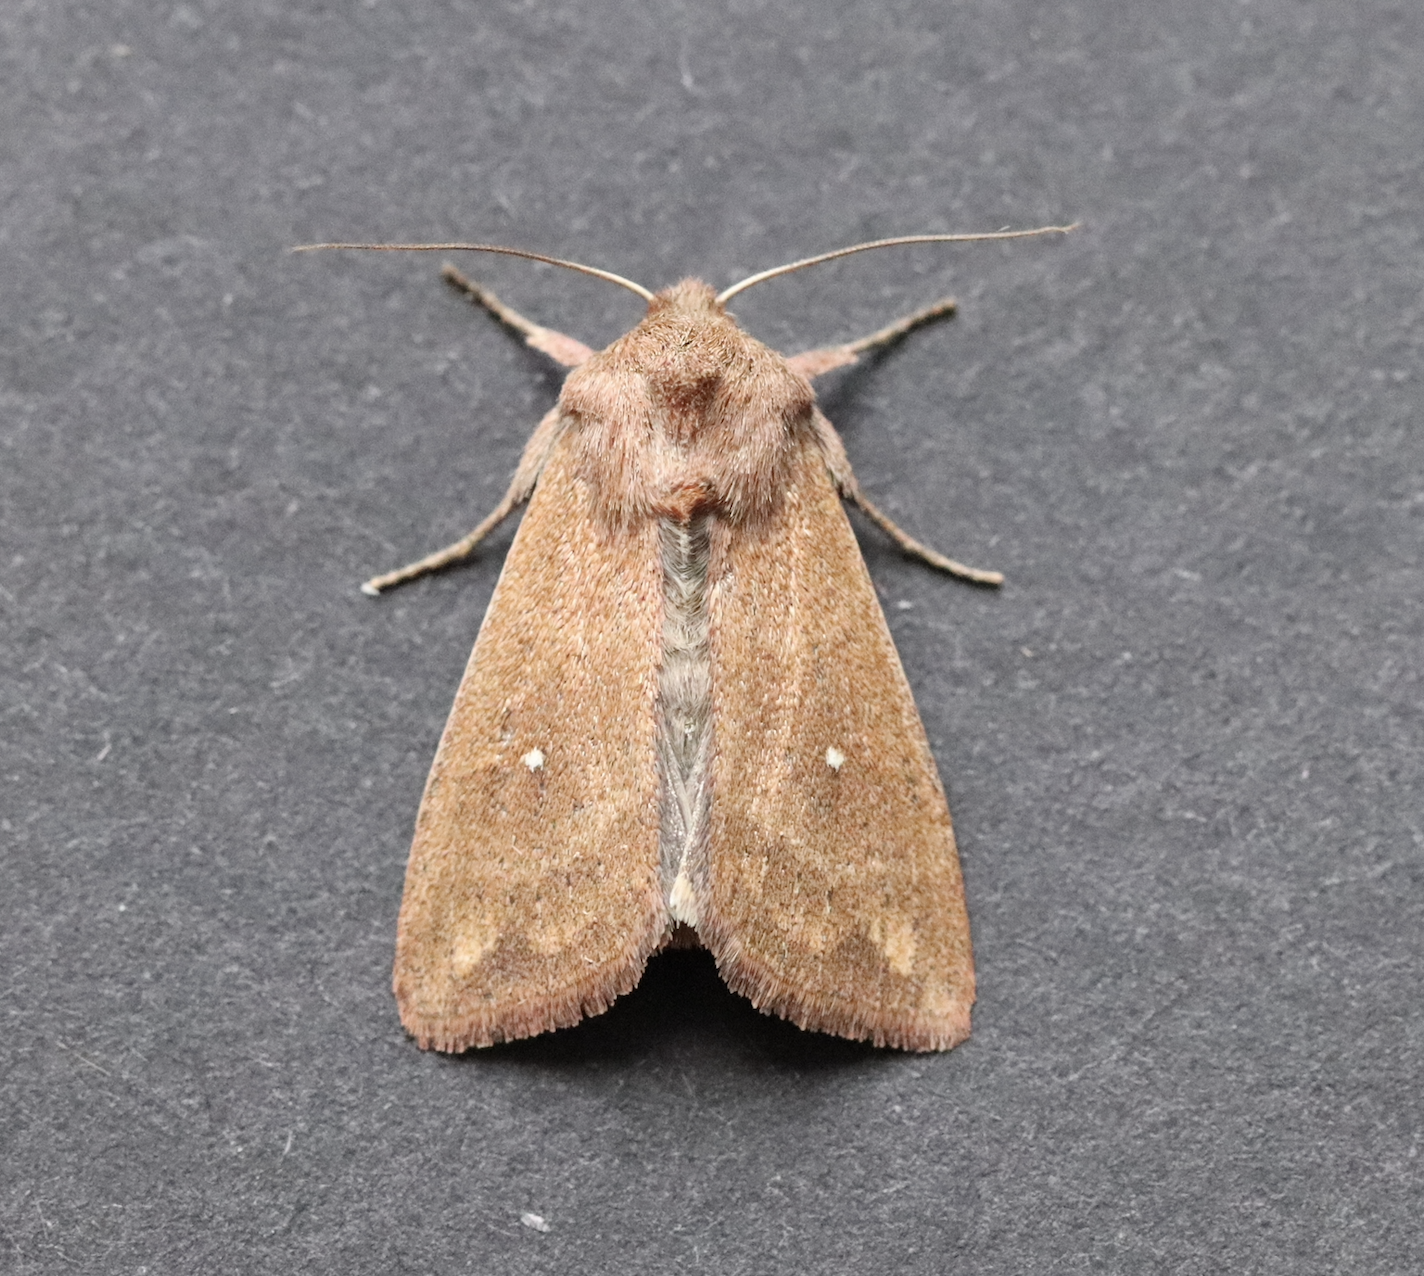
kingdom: Animalia
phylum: Arthropoda
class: Insecta
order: Lepidoptera
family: Noctuidae
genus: Mythimna
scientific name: Mythimna albipuncta
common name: White-point
